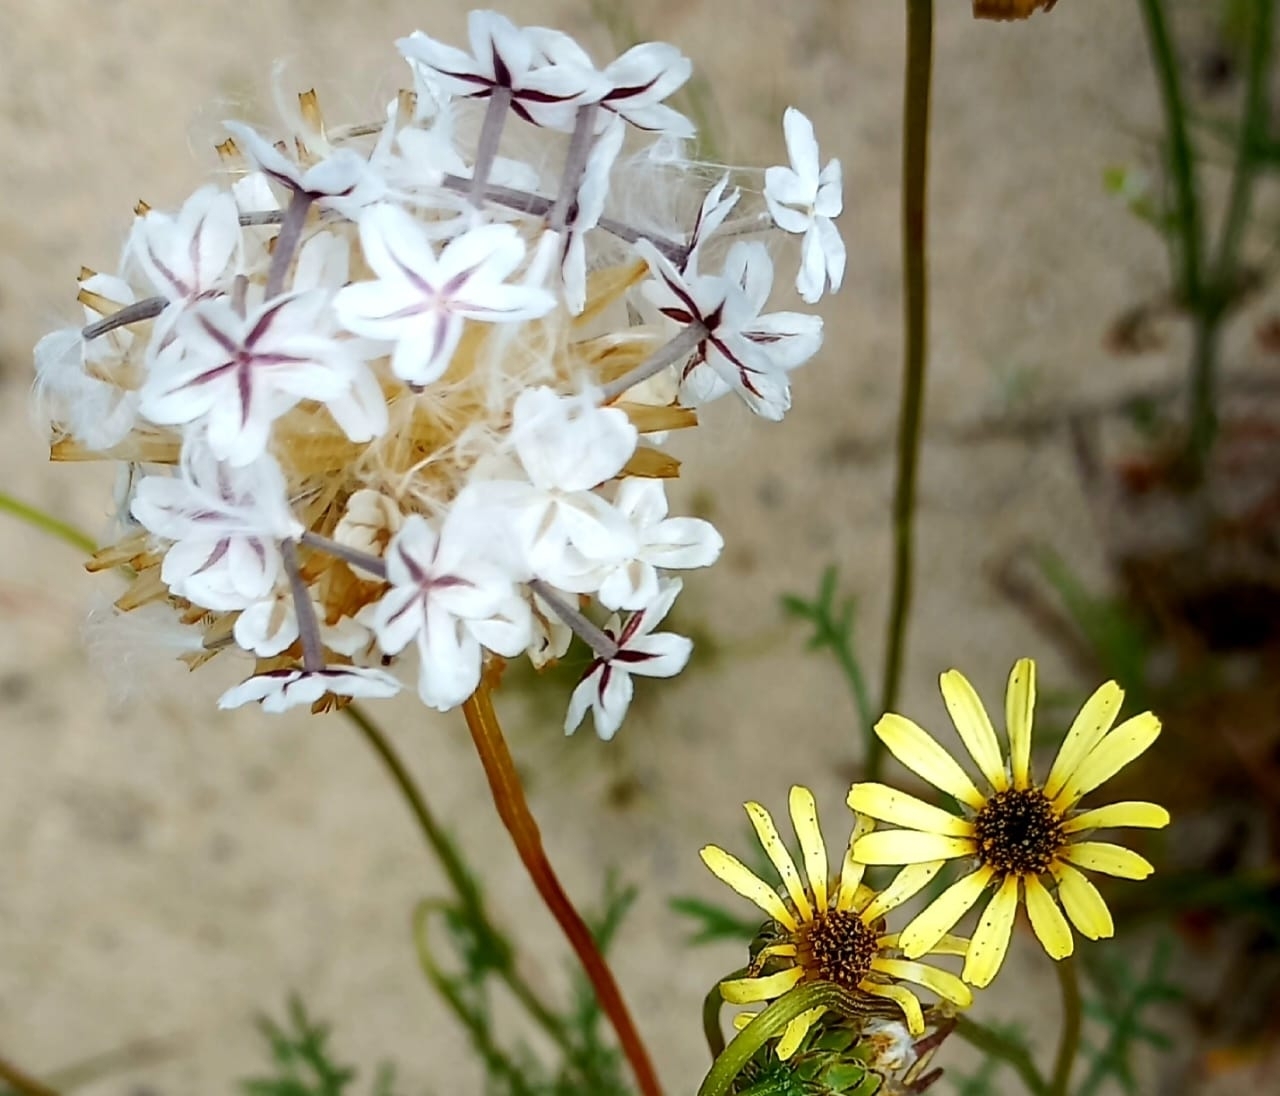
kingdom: Plantae
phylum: Tracheophyta
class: Magnoliopsida
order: Asterales
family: Asteraceae
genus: Ursinia
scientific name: Ursinia anthemoides
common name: Ursinia
